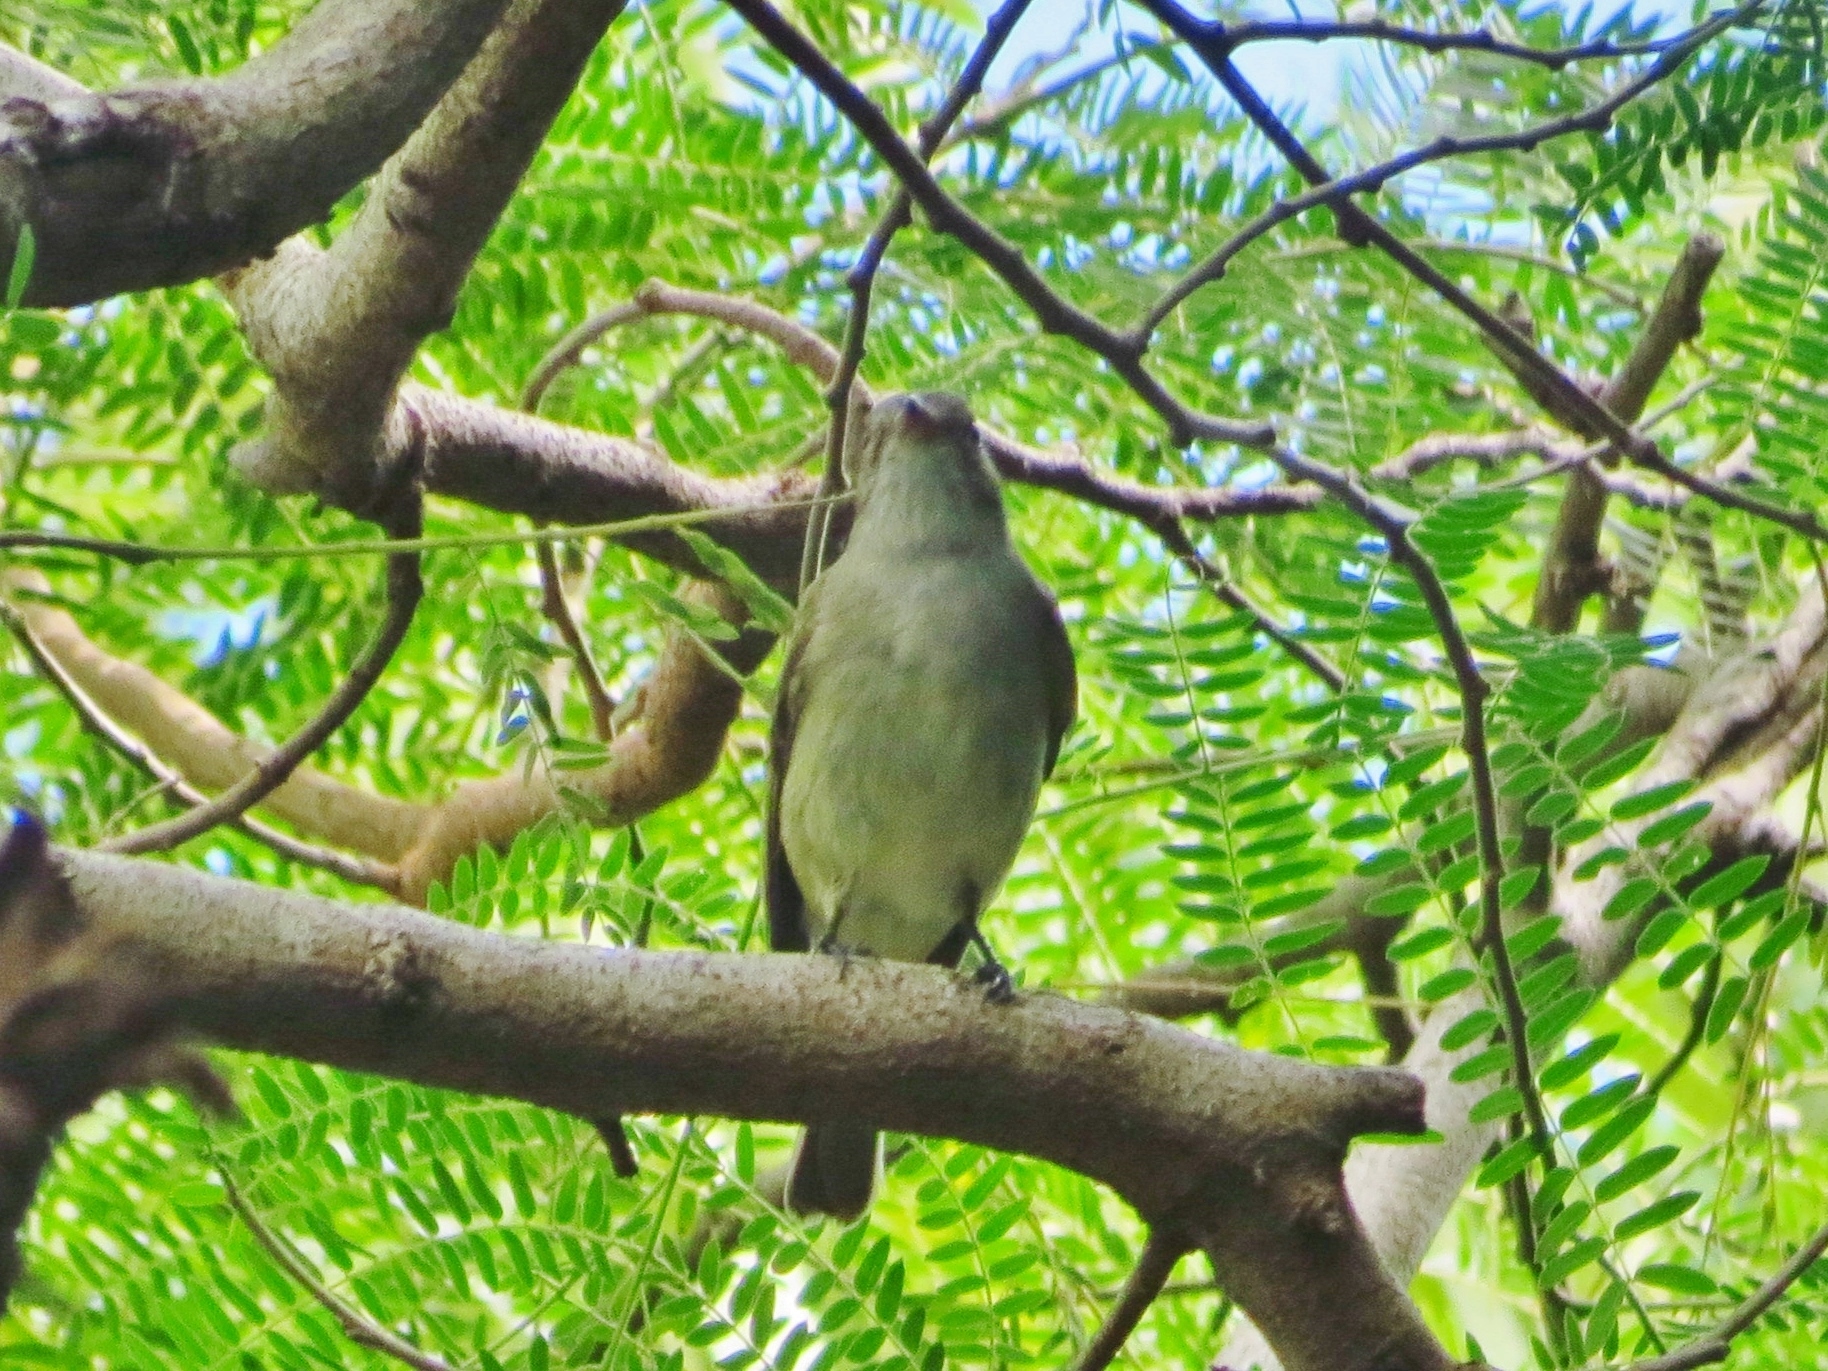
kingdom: Animalia
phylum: Chordata
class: Aves
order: Passeriformes
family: Tyrannidae
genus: Elaenia
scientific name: Elaenia martinica
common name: Caribbean elaenia
